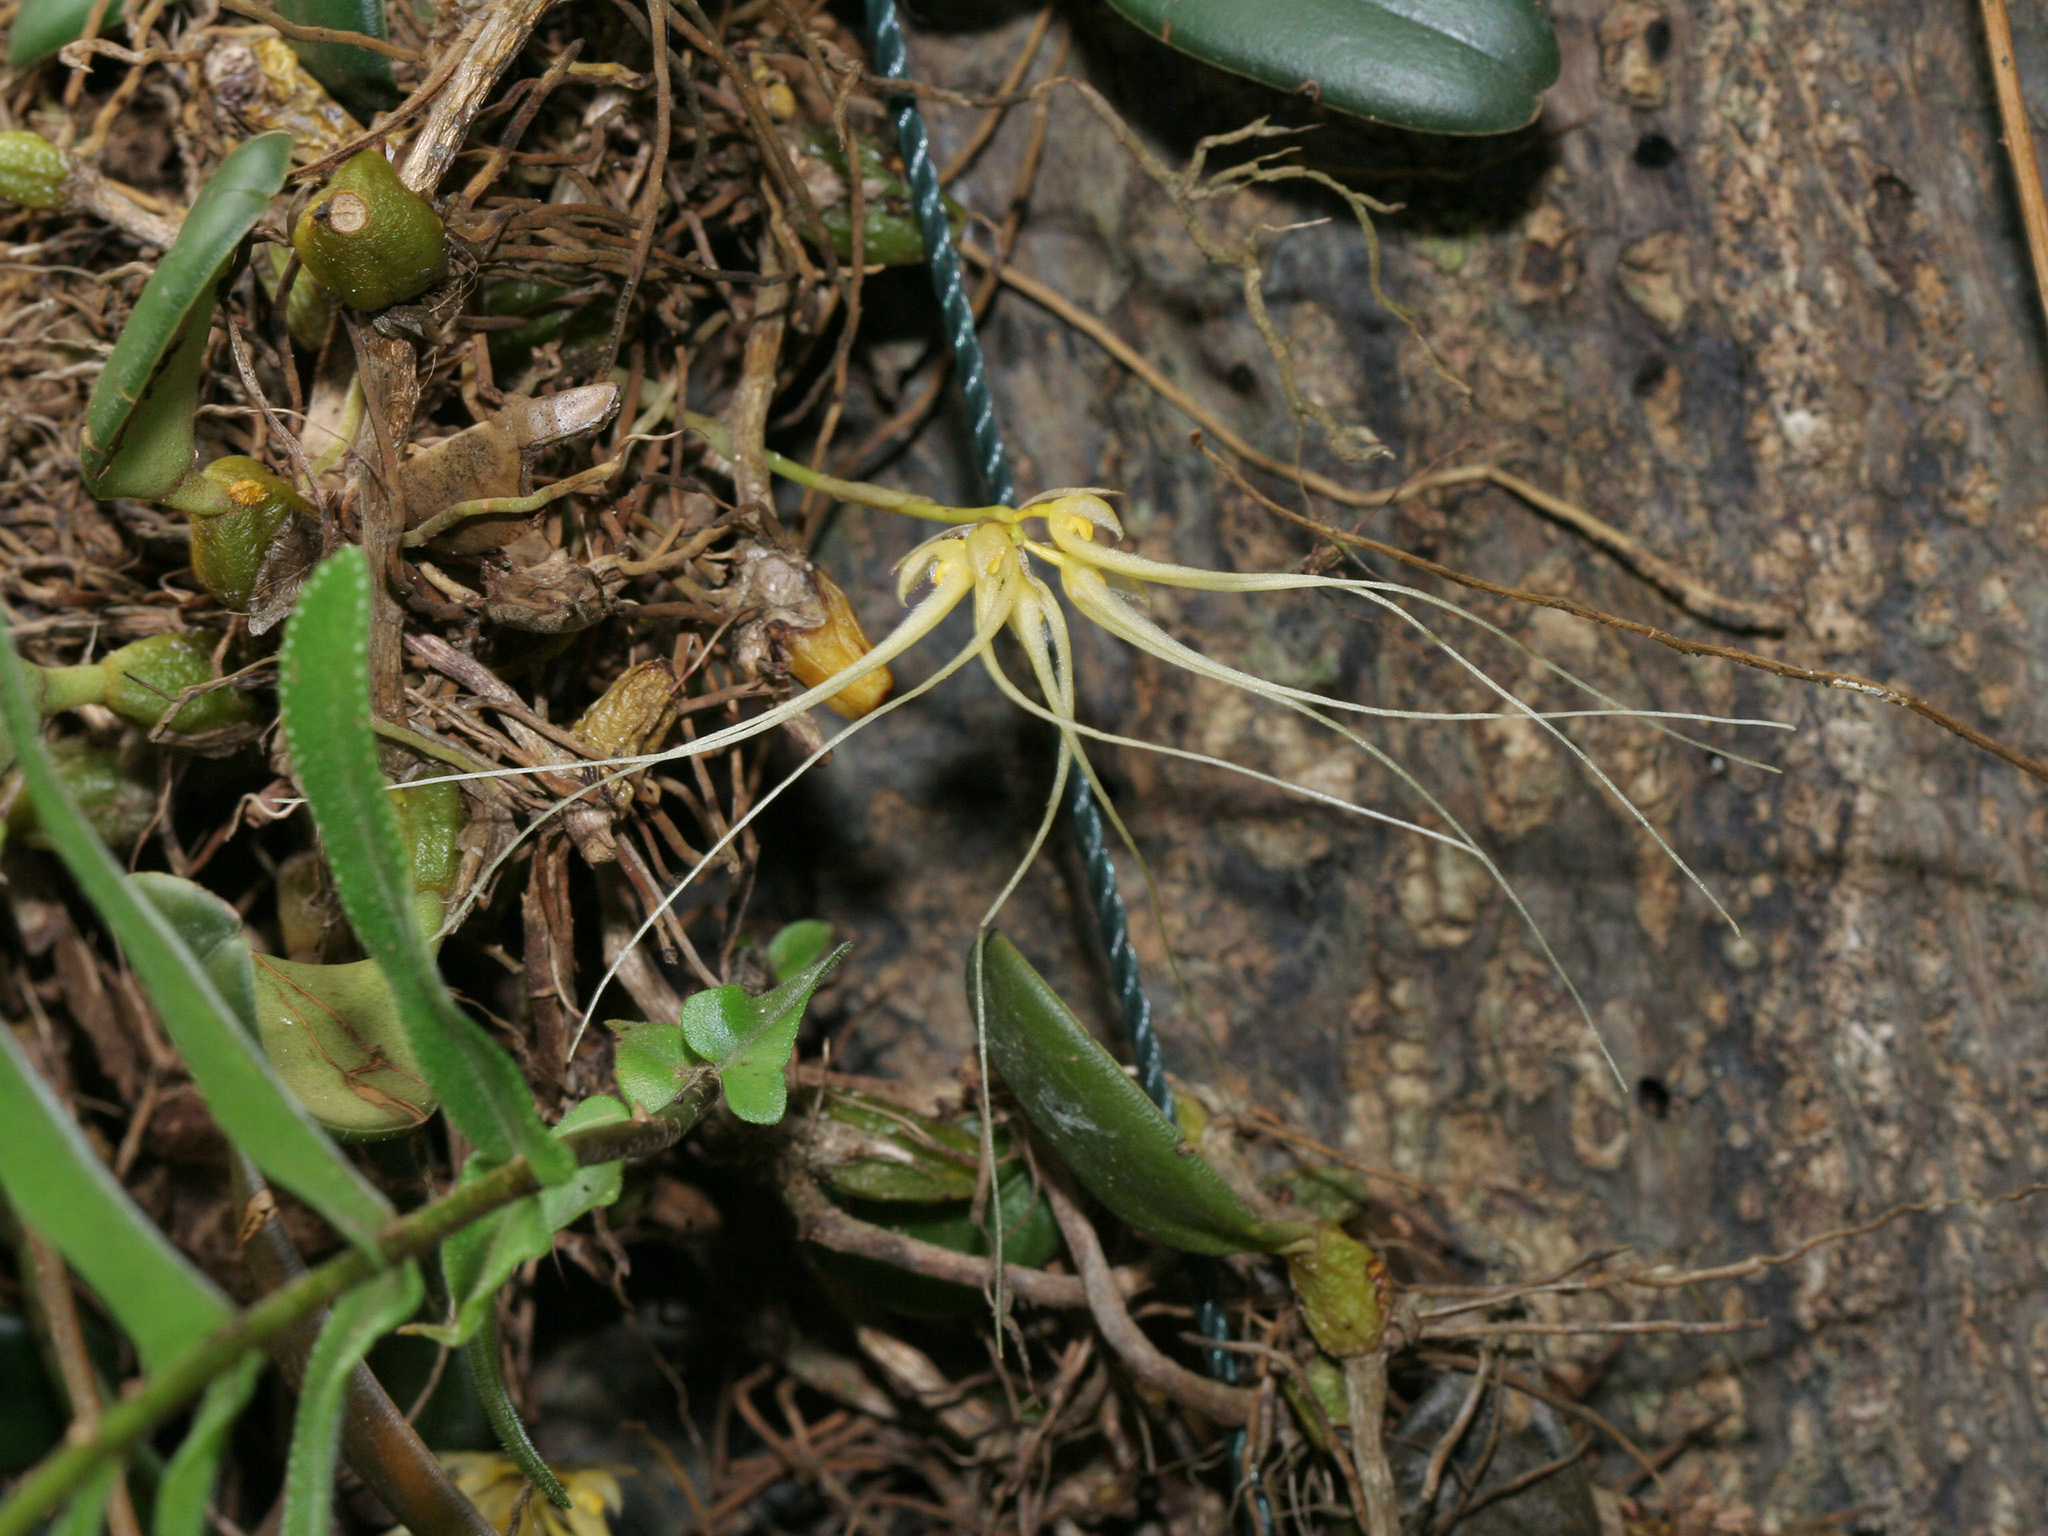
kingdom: Plantae
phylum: Tracheophyta
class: Liliopsida
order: Asparagales
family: Orchidaceae
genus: Bulbophyllum
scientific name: Bulbophyllum vaginatum
